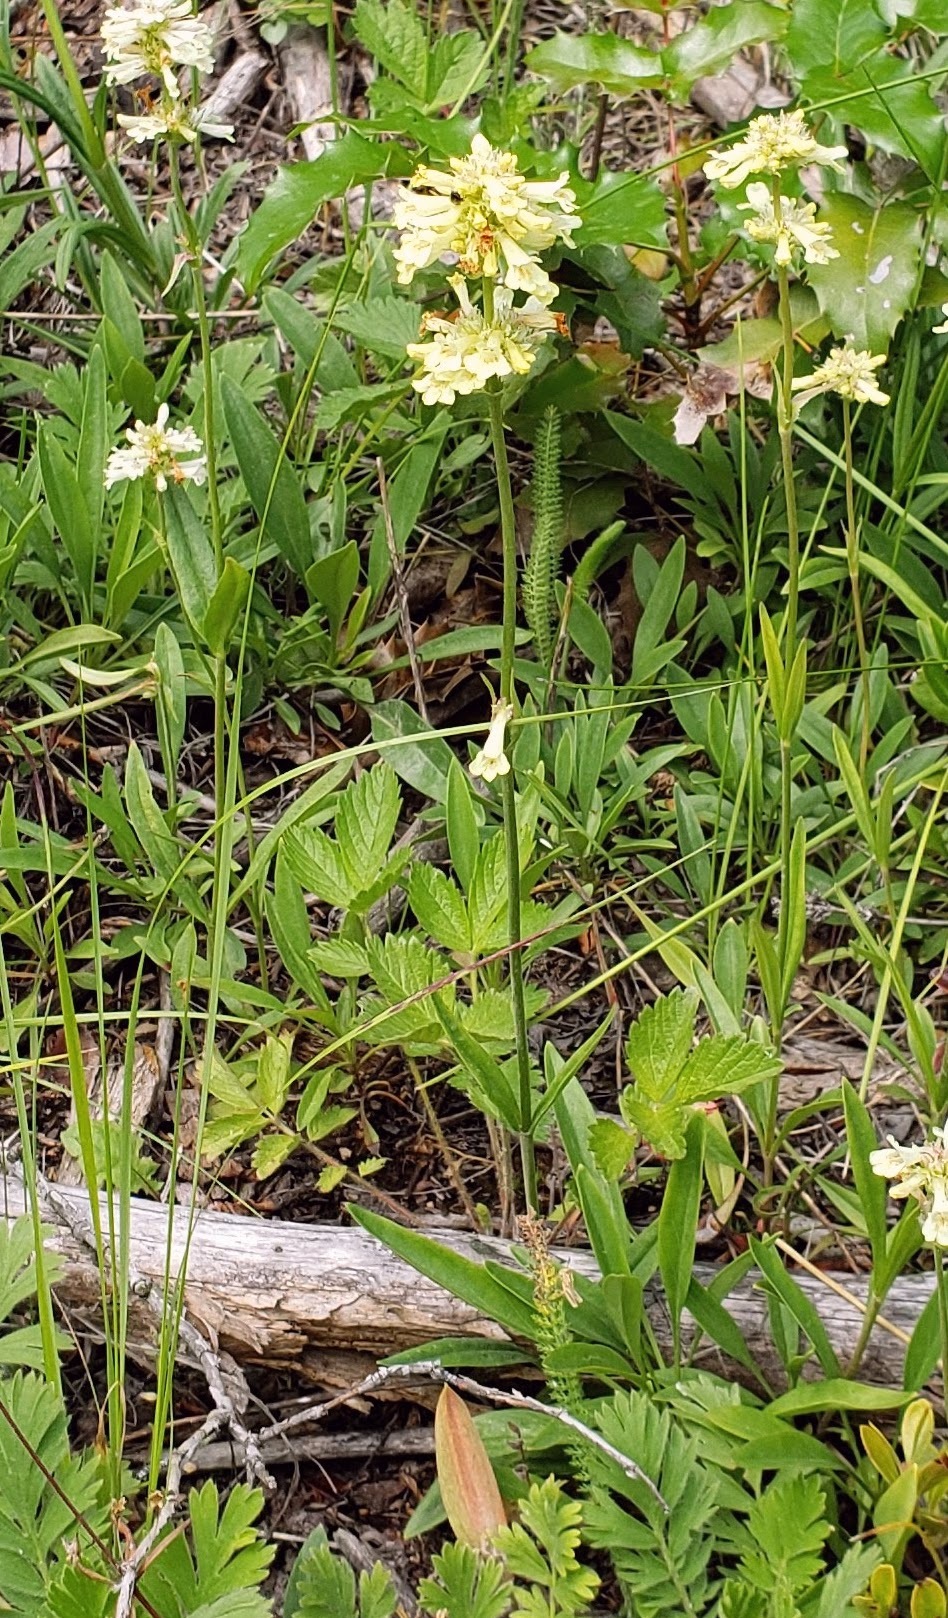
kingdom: Plantae
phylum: Tracheophyta
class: Magnoliopsida
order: Lamiales
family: Plantaginaceae
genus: Penstemon
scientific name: Penstemon confertus
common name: Lesser yellow beardtongue
